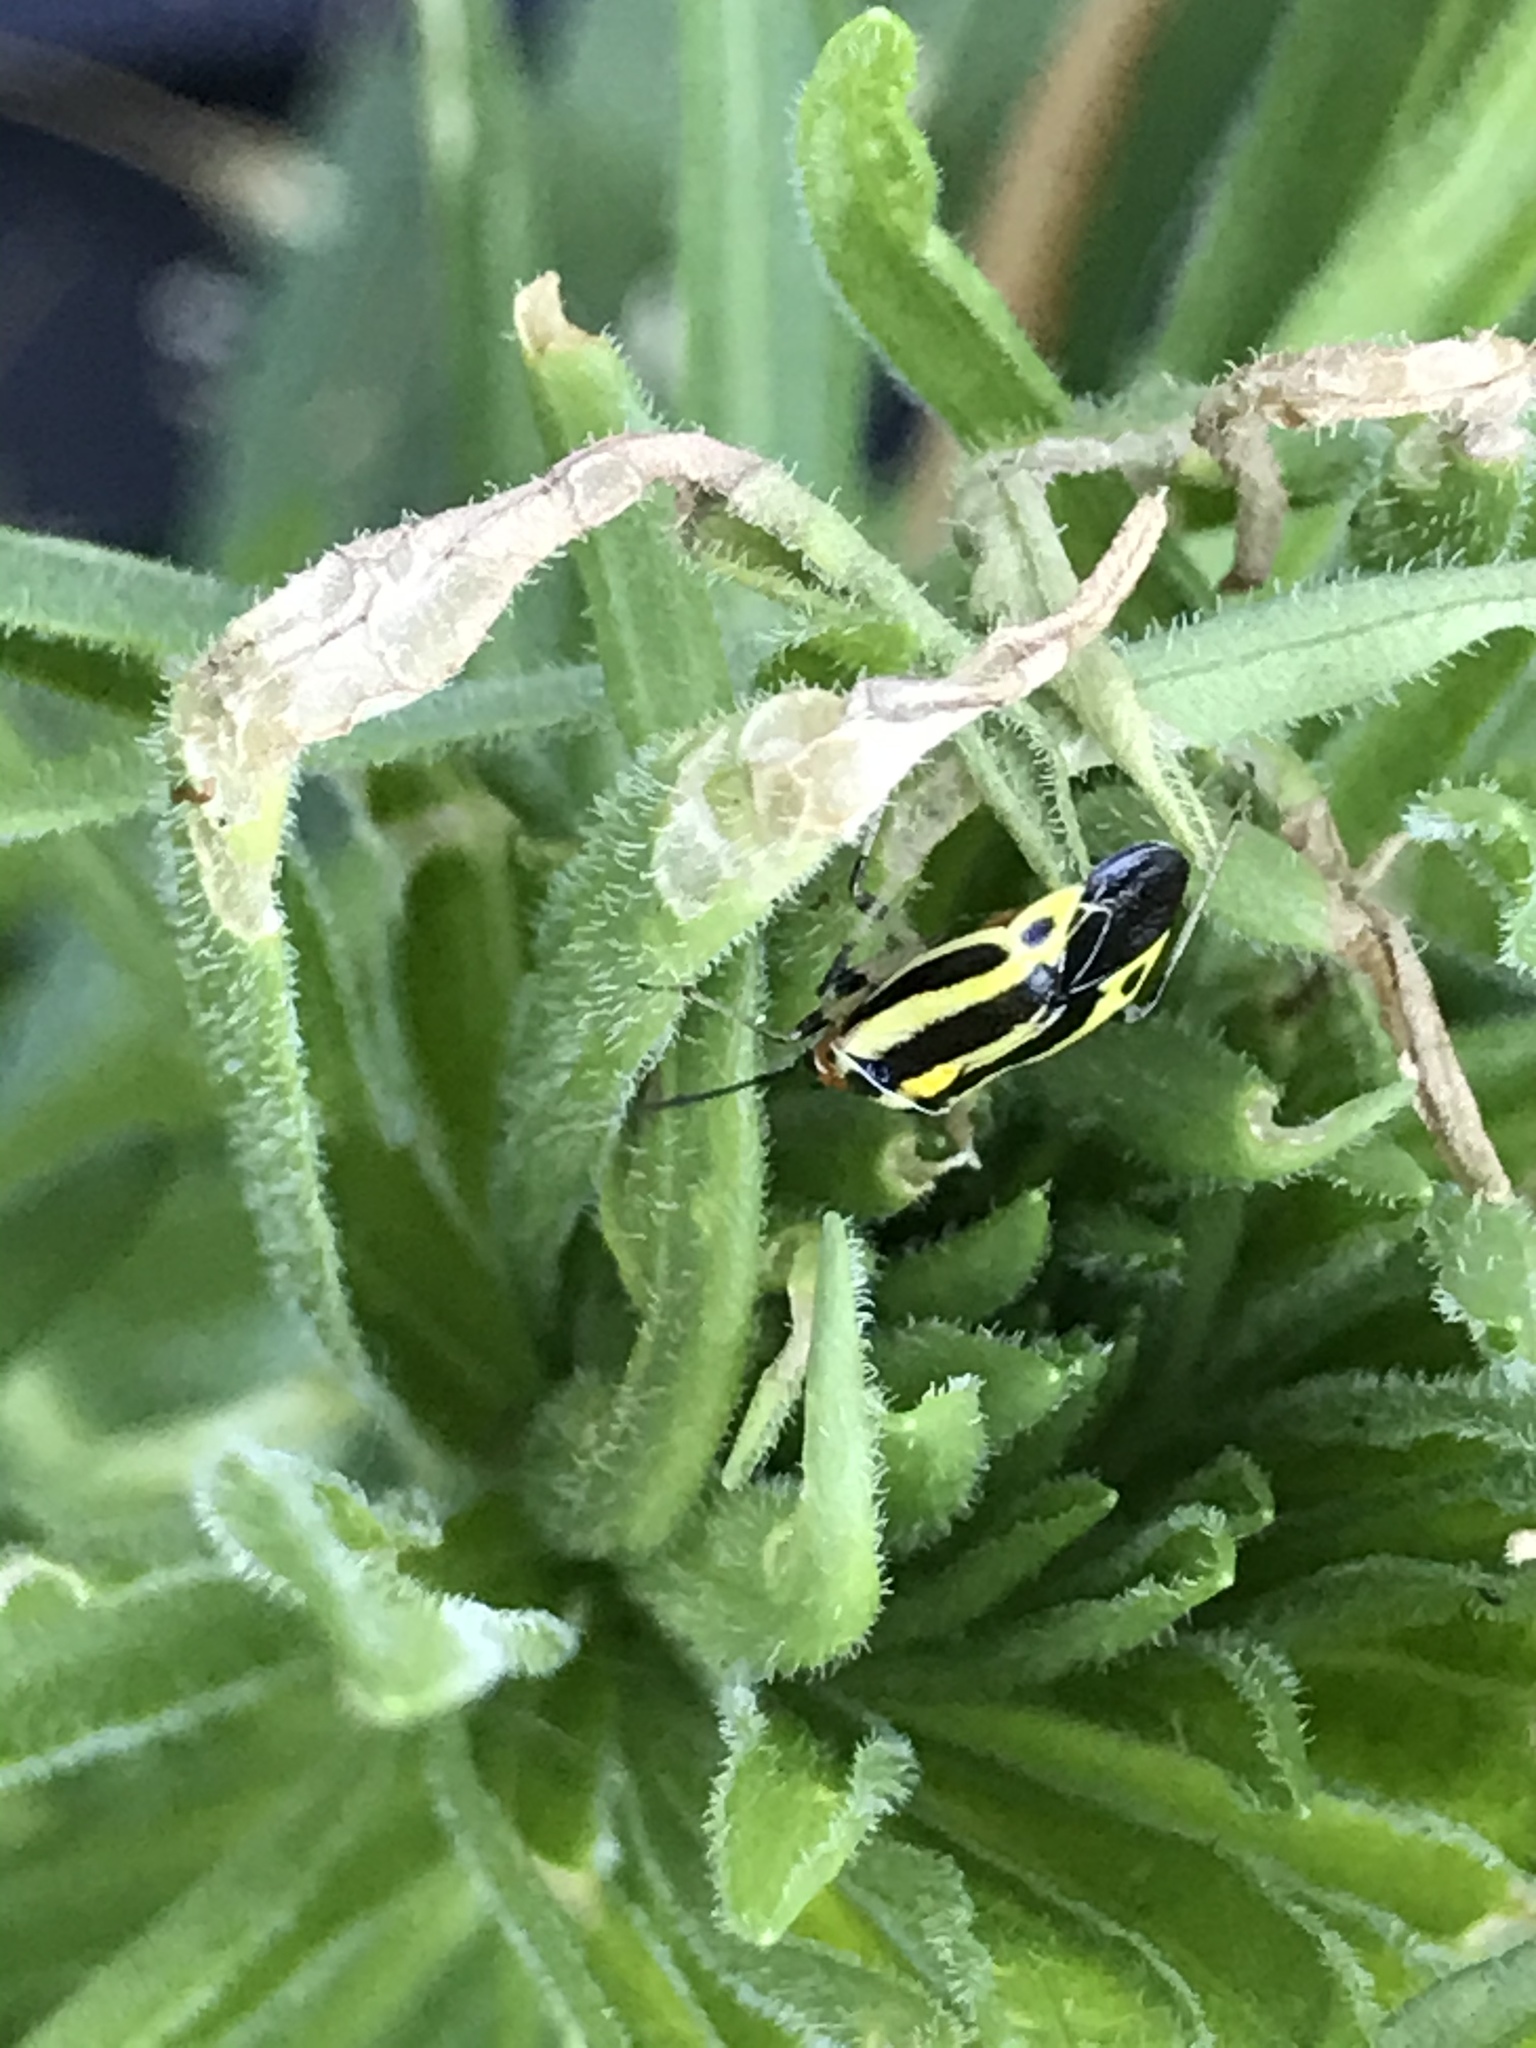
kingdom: Animalia
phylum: Arthropoda
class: Insecta
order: Hemiptera
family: Miridae
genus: Poecilocapsus
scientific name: Poecilocapsus lineatus
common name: Four-lined plant bug
